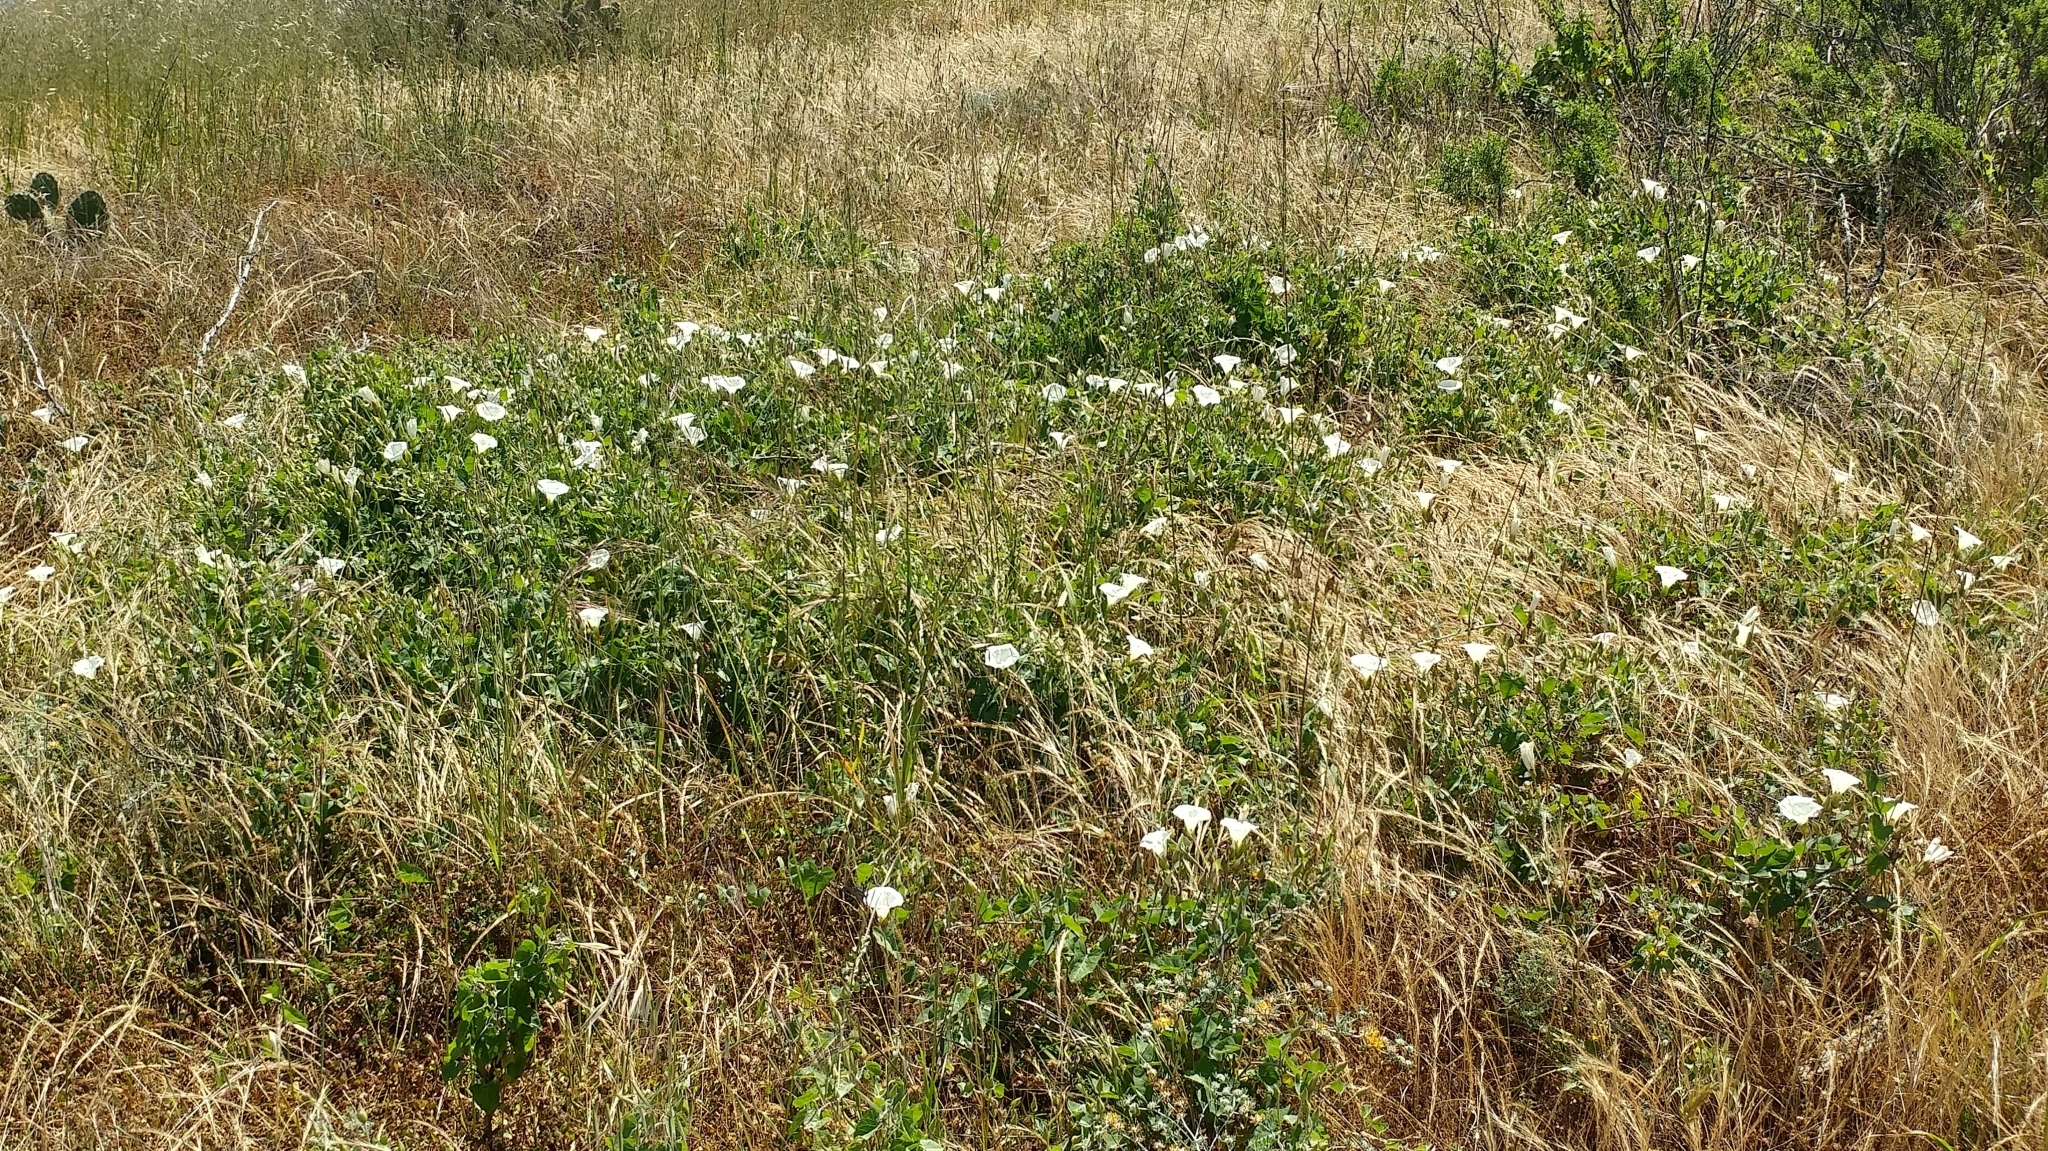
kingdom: Plantae
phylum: Tracheophyta
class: Magnoliopsida
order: Solanales
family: Convolvulaceae
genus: Calystegia
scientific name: Calystegia macrostegia
